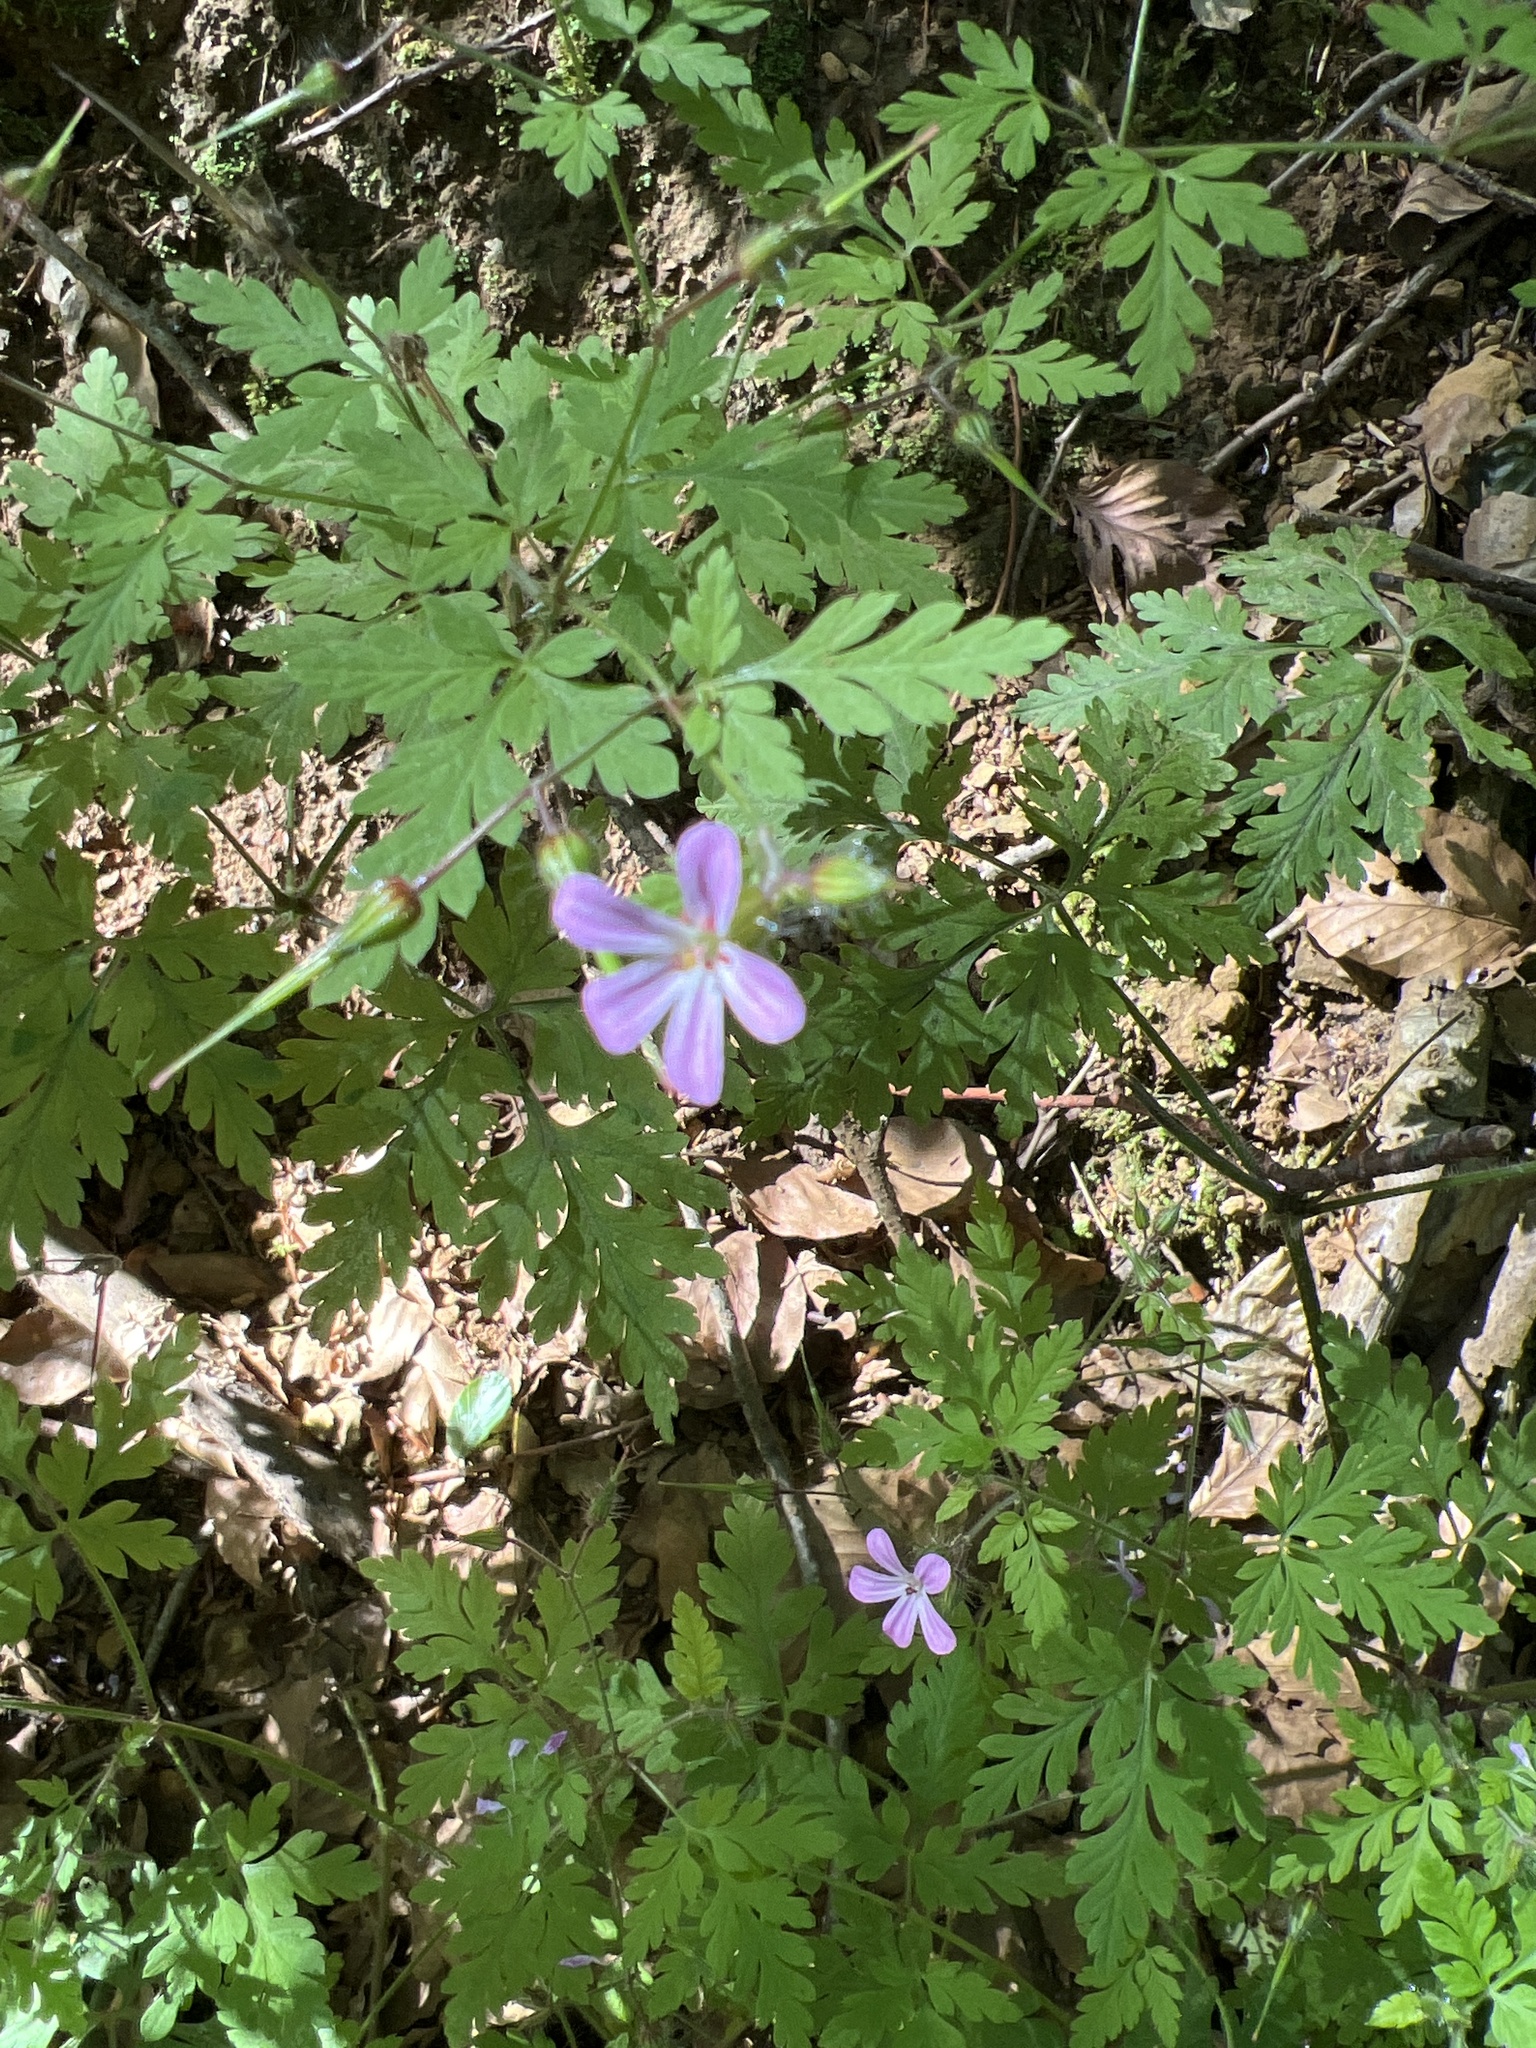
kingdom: Plantae
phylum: Tracheophyta
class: Magnoliopsida
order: Geraniales
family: Geraniaceae
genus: Geranium
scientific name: Geranium robertianum
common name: Herb-robert
